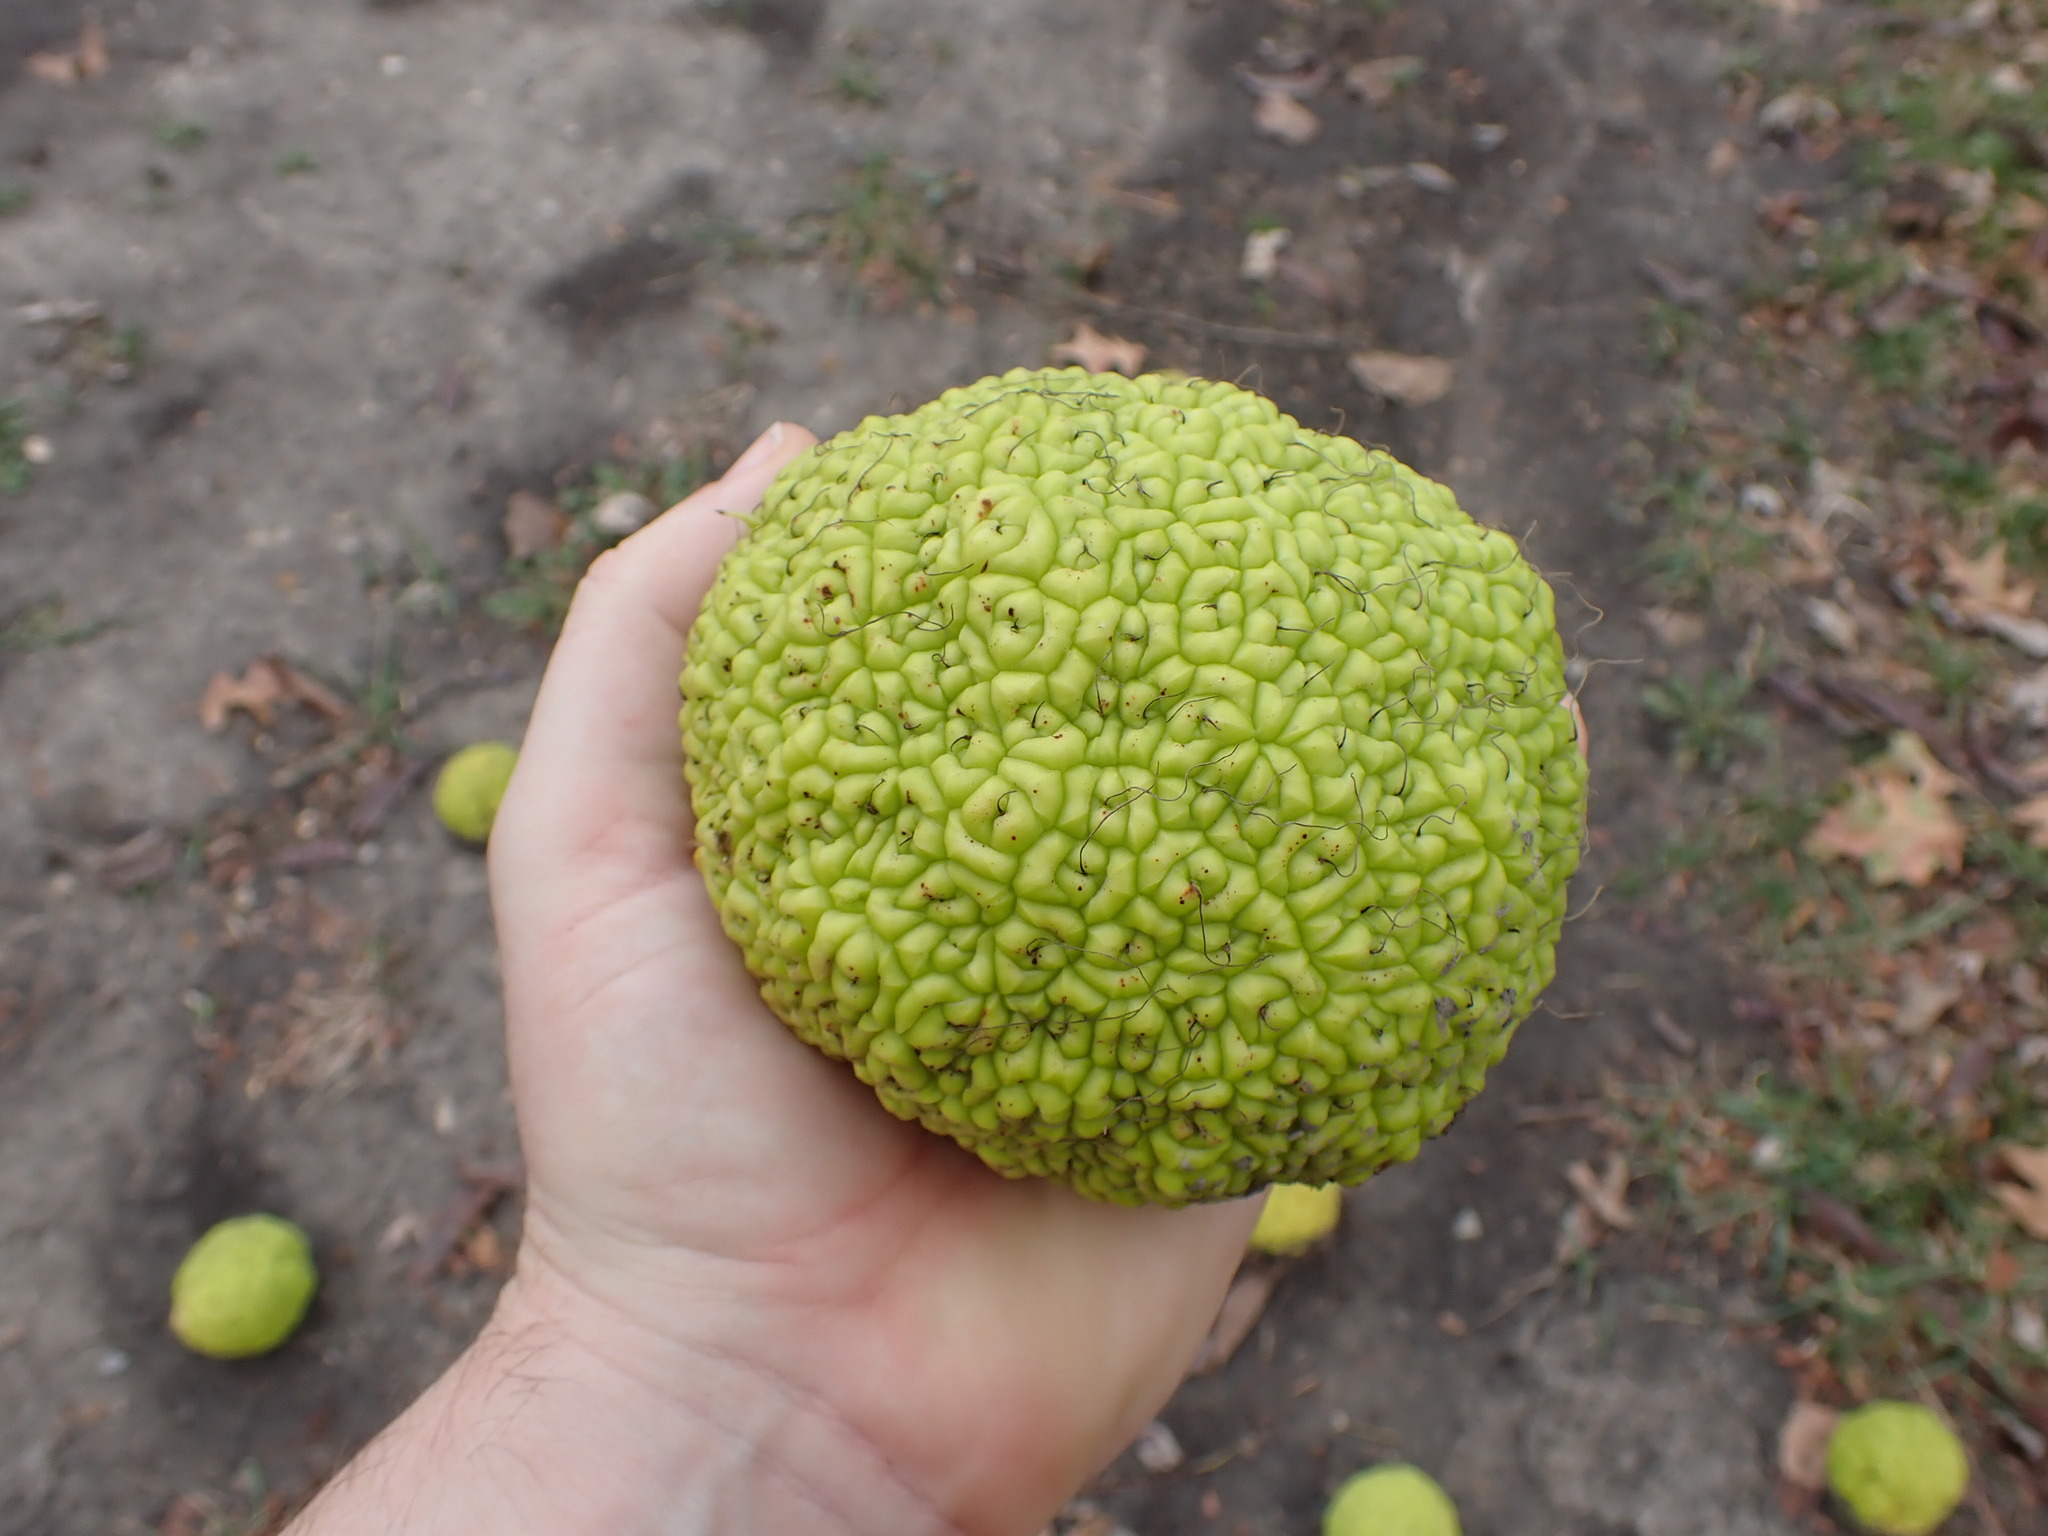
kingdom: Plantae
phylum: Tracheophyta
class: Magnoliopsida
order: Rosales
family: Moraceae
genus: Maclura
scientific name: Maclura pomifera
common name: Osage-orange
